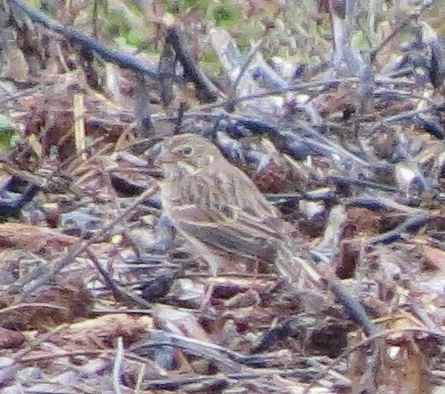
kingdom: Animalia
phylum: Chordata
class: Aves
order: Passeriformes
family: Passerellidae
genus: Pooecetes
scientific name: Pooecetes gramineus
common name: Vesper sparrow
